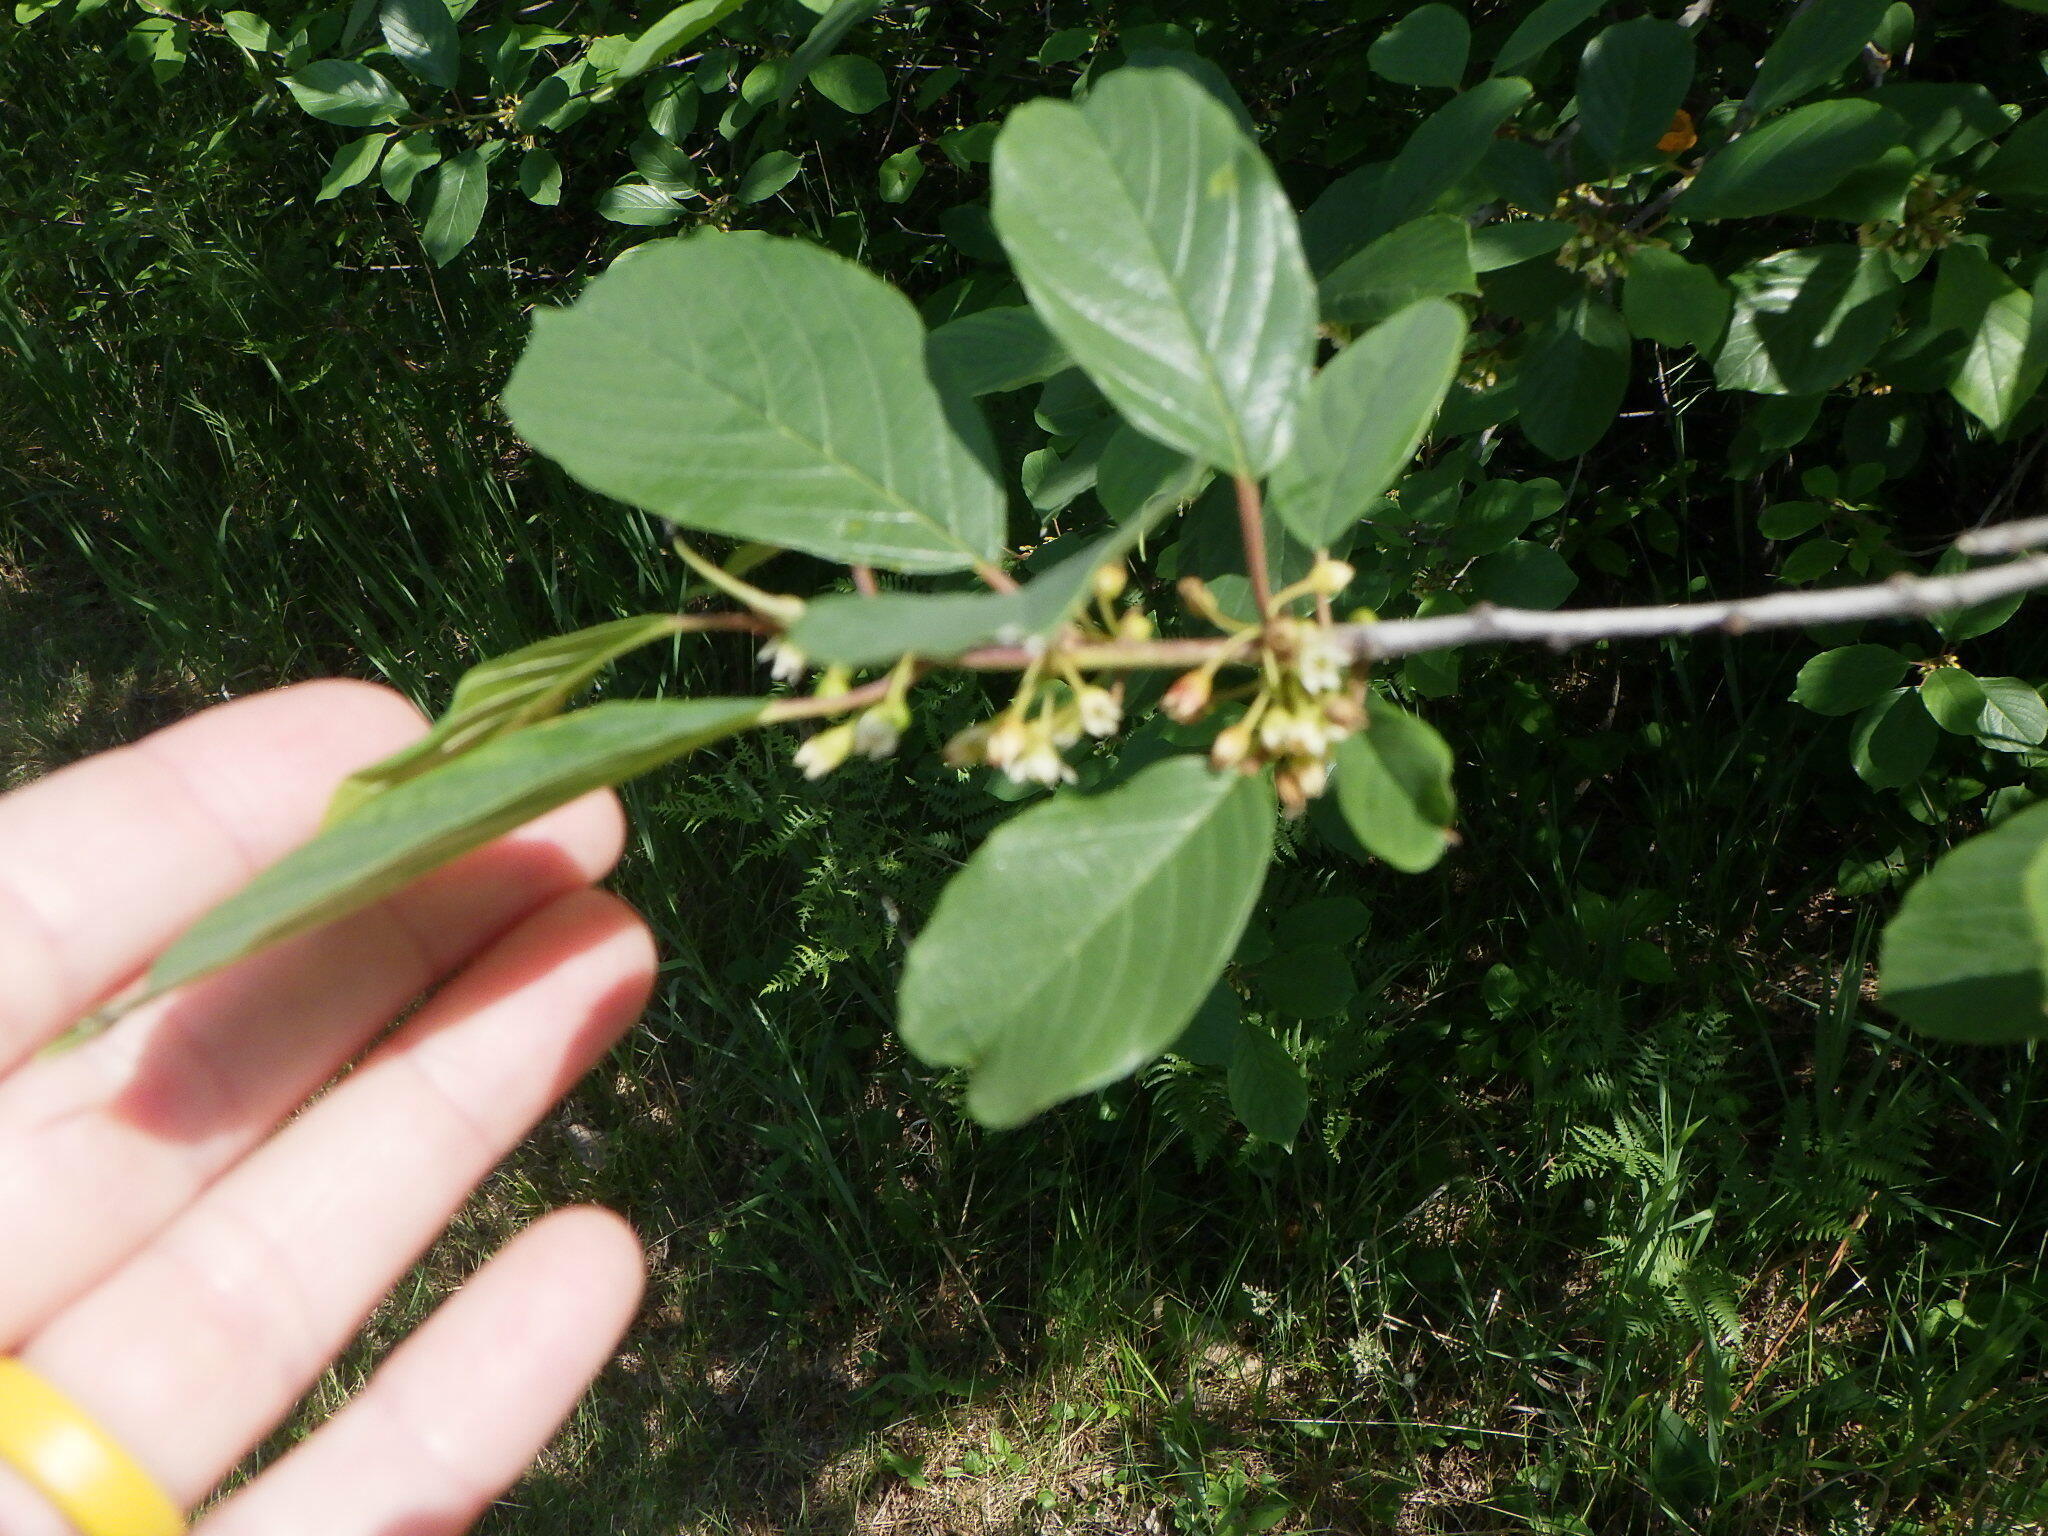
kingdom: Plantae
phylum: Tracheophyta
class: Magnoliopsida
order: Rosales
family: Rhamnaceae
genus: Frangula
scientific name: Frangula alnus
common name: Alder buckthorn
